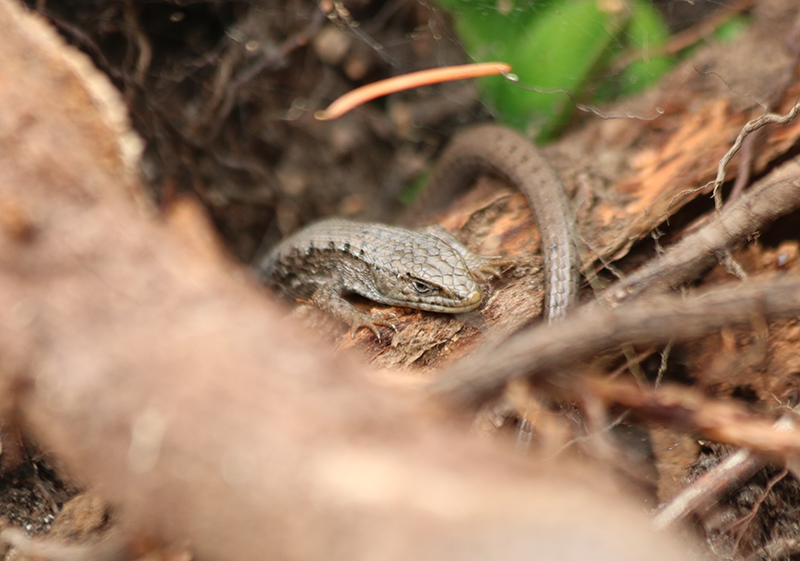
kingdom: Animalia
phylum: Chordata
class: Squamata
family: Anguidae
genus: Elgaria
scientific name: Elgaria coerulea
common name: Northern alligator lizard
